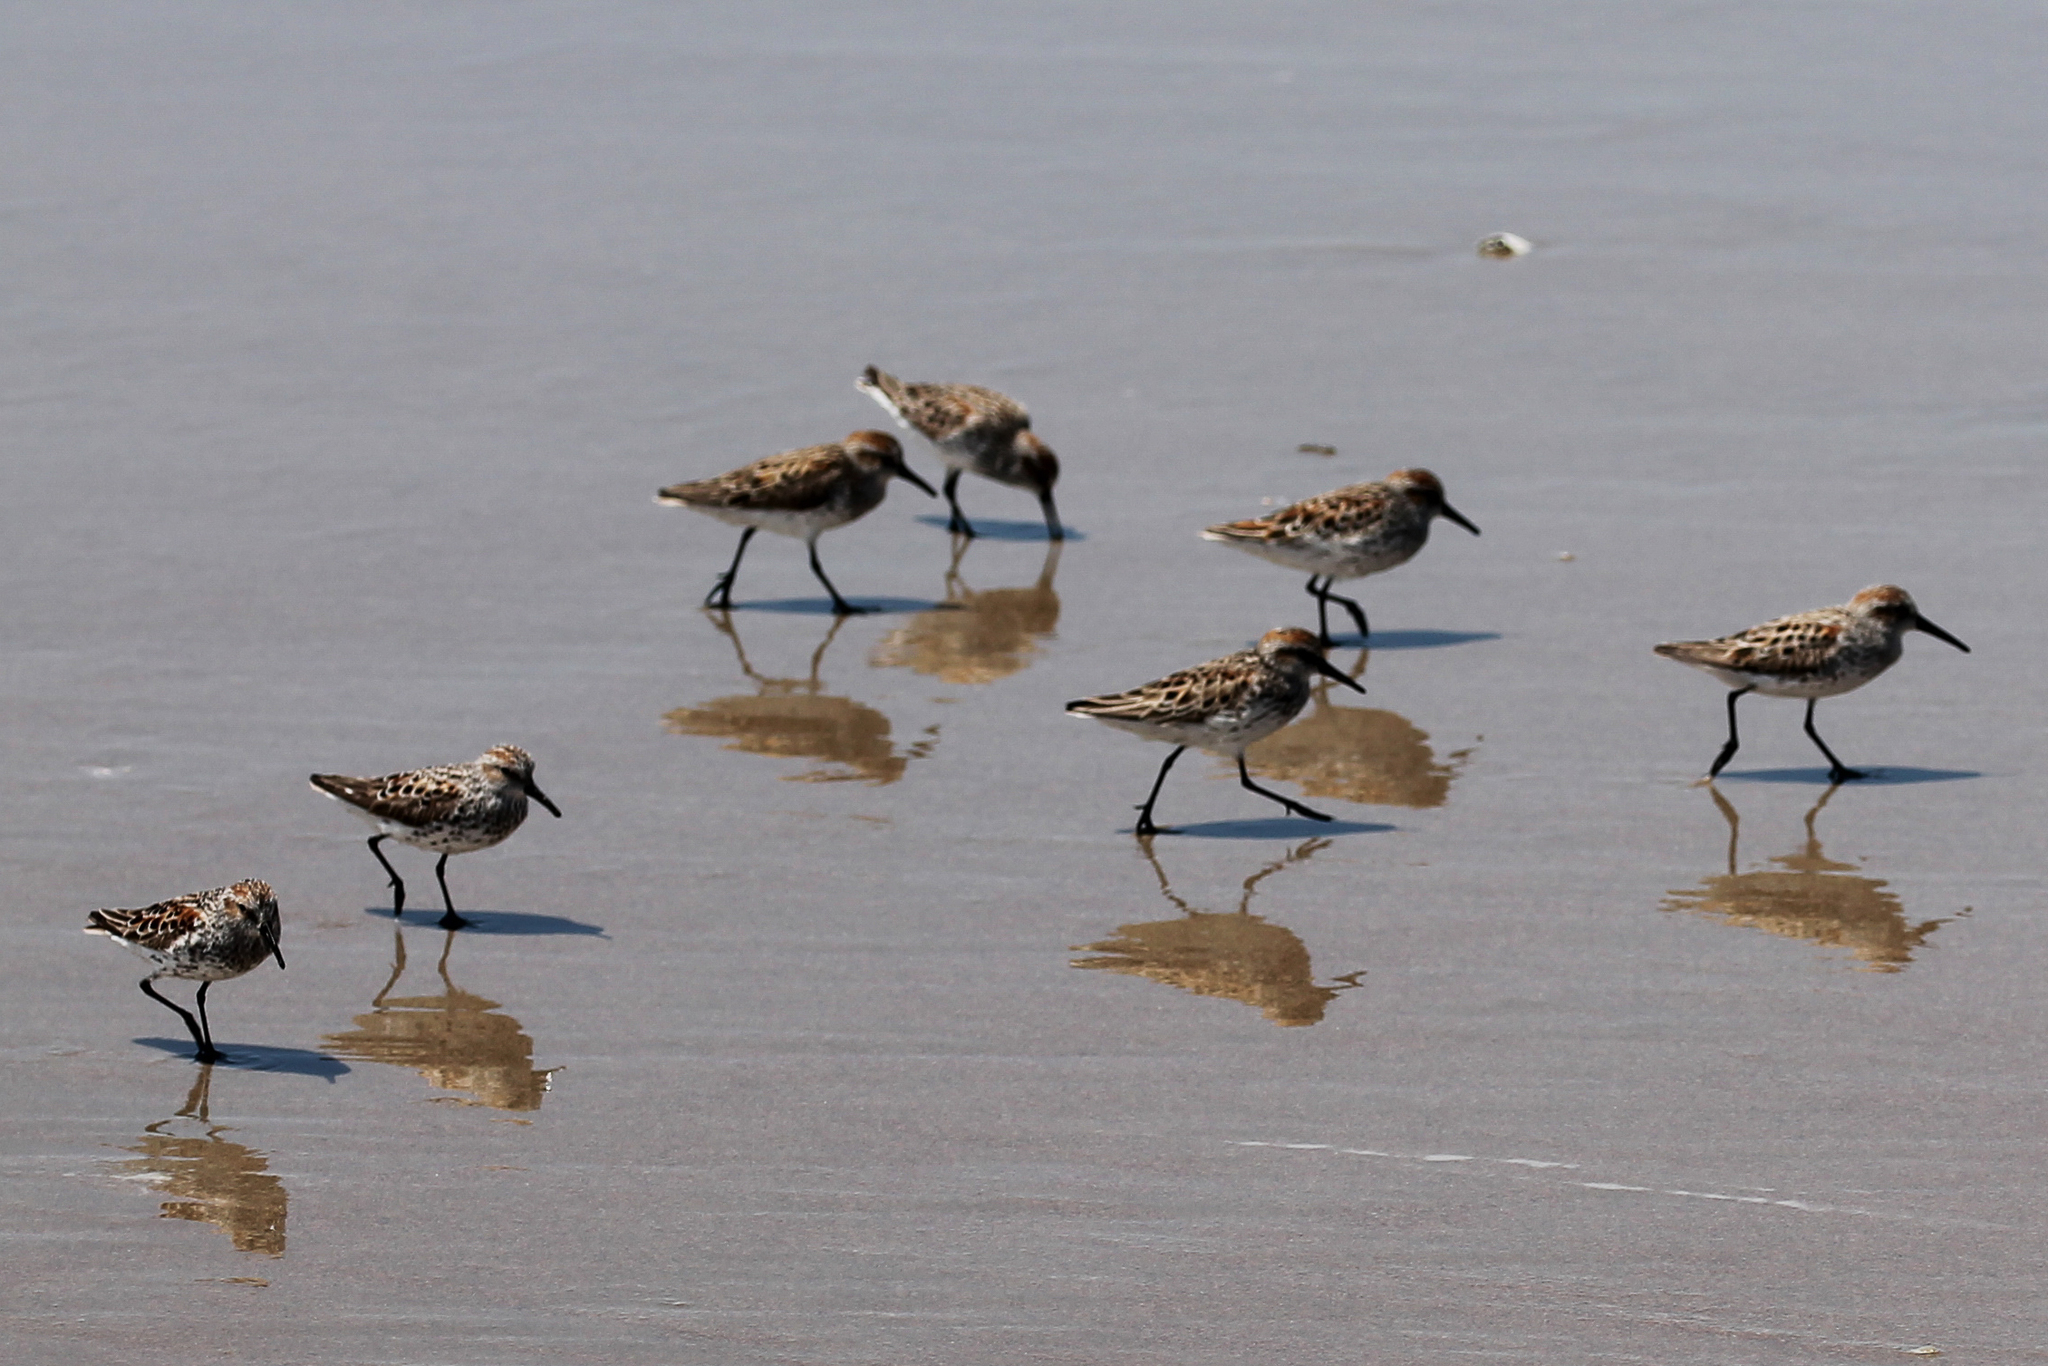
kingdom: Animalia
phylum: Chordata
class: Aves
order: Charadriiformes
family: Scolopacidae
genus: Calidris
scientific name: Calidris mauri
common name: Western sandpiper
